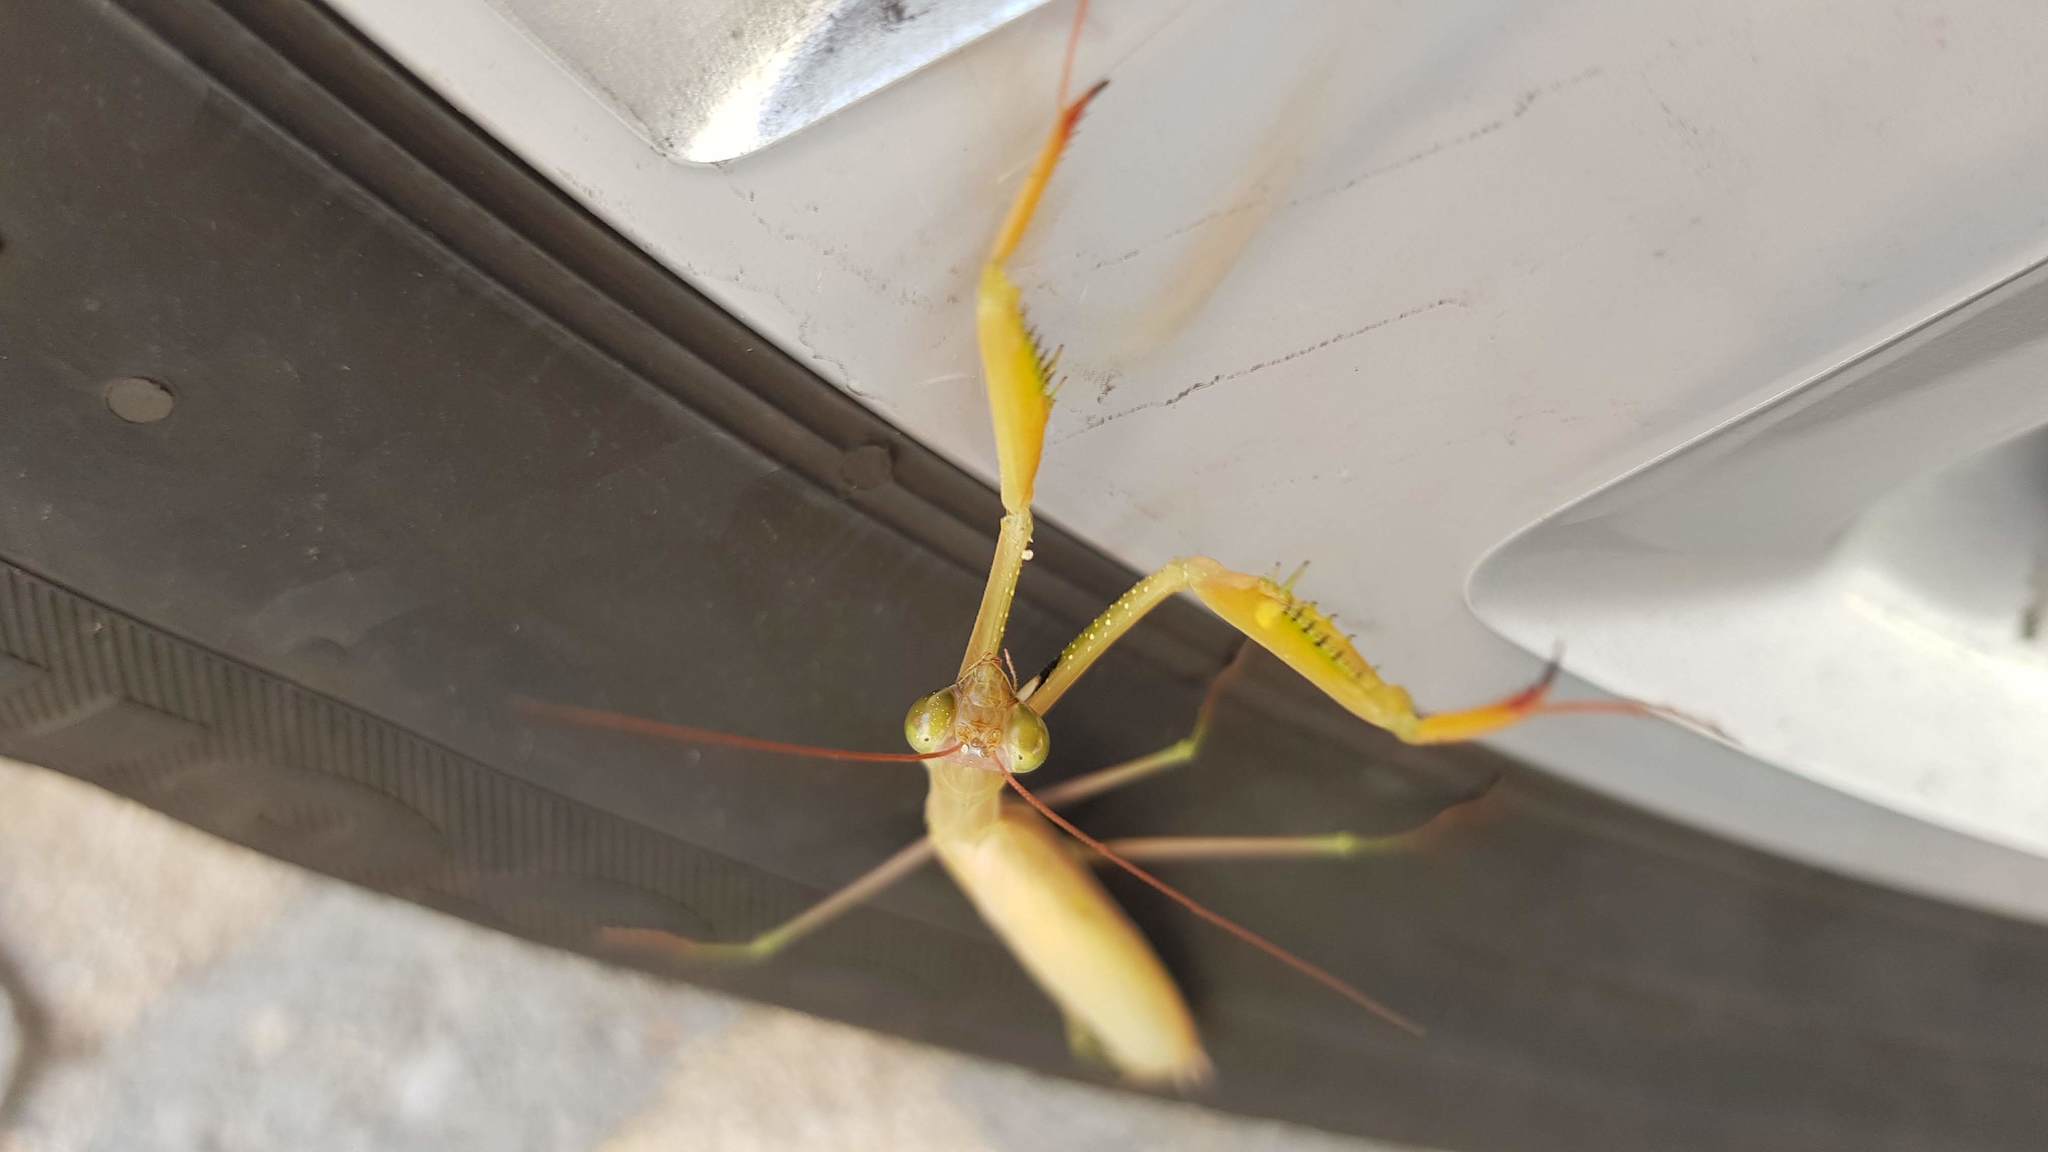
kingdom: Animalia
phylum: Arthropoda
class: Insecta
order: Mantodea
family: Mantidae
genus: Mantis
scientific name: Mantis religiosa
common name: Praying mantis
